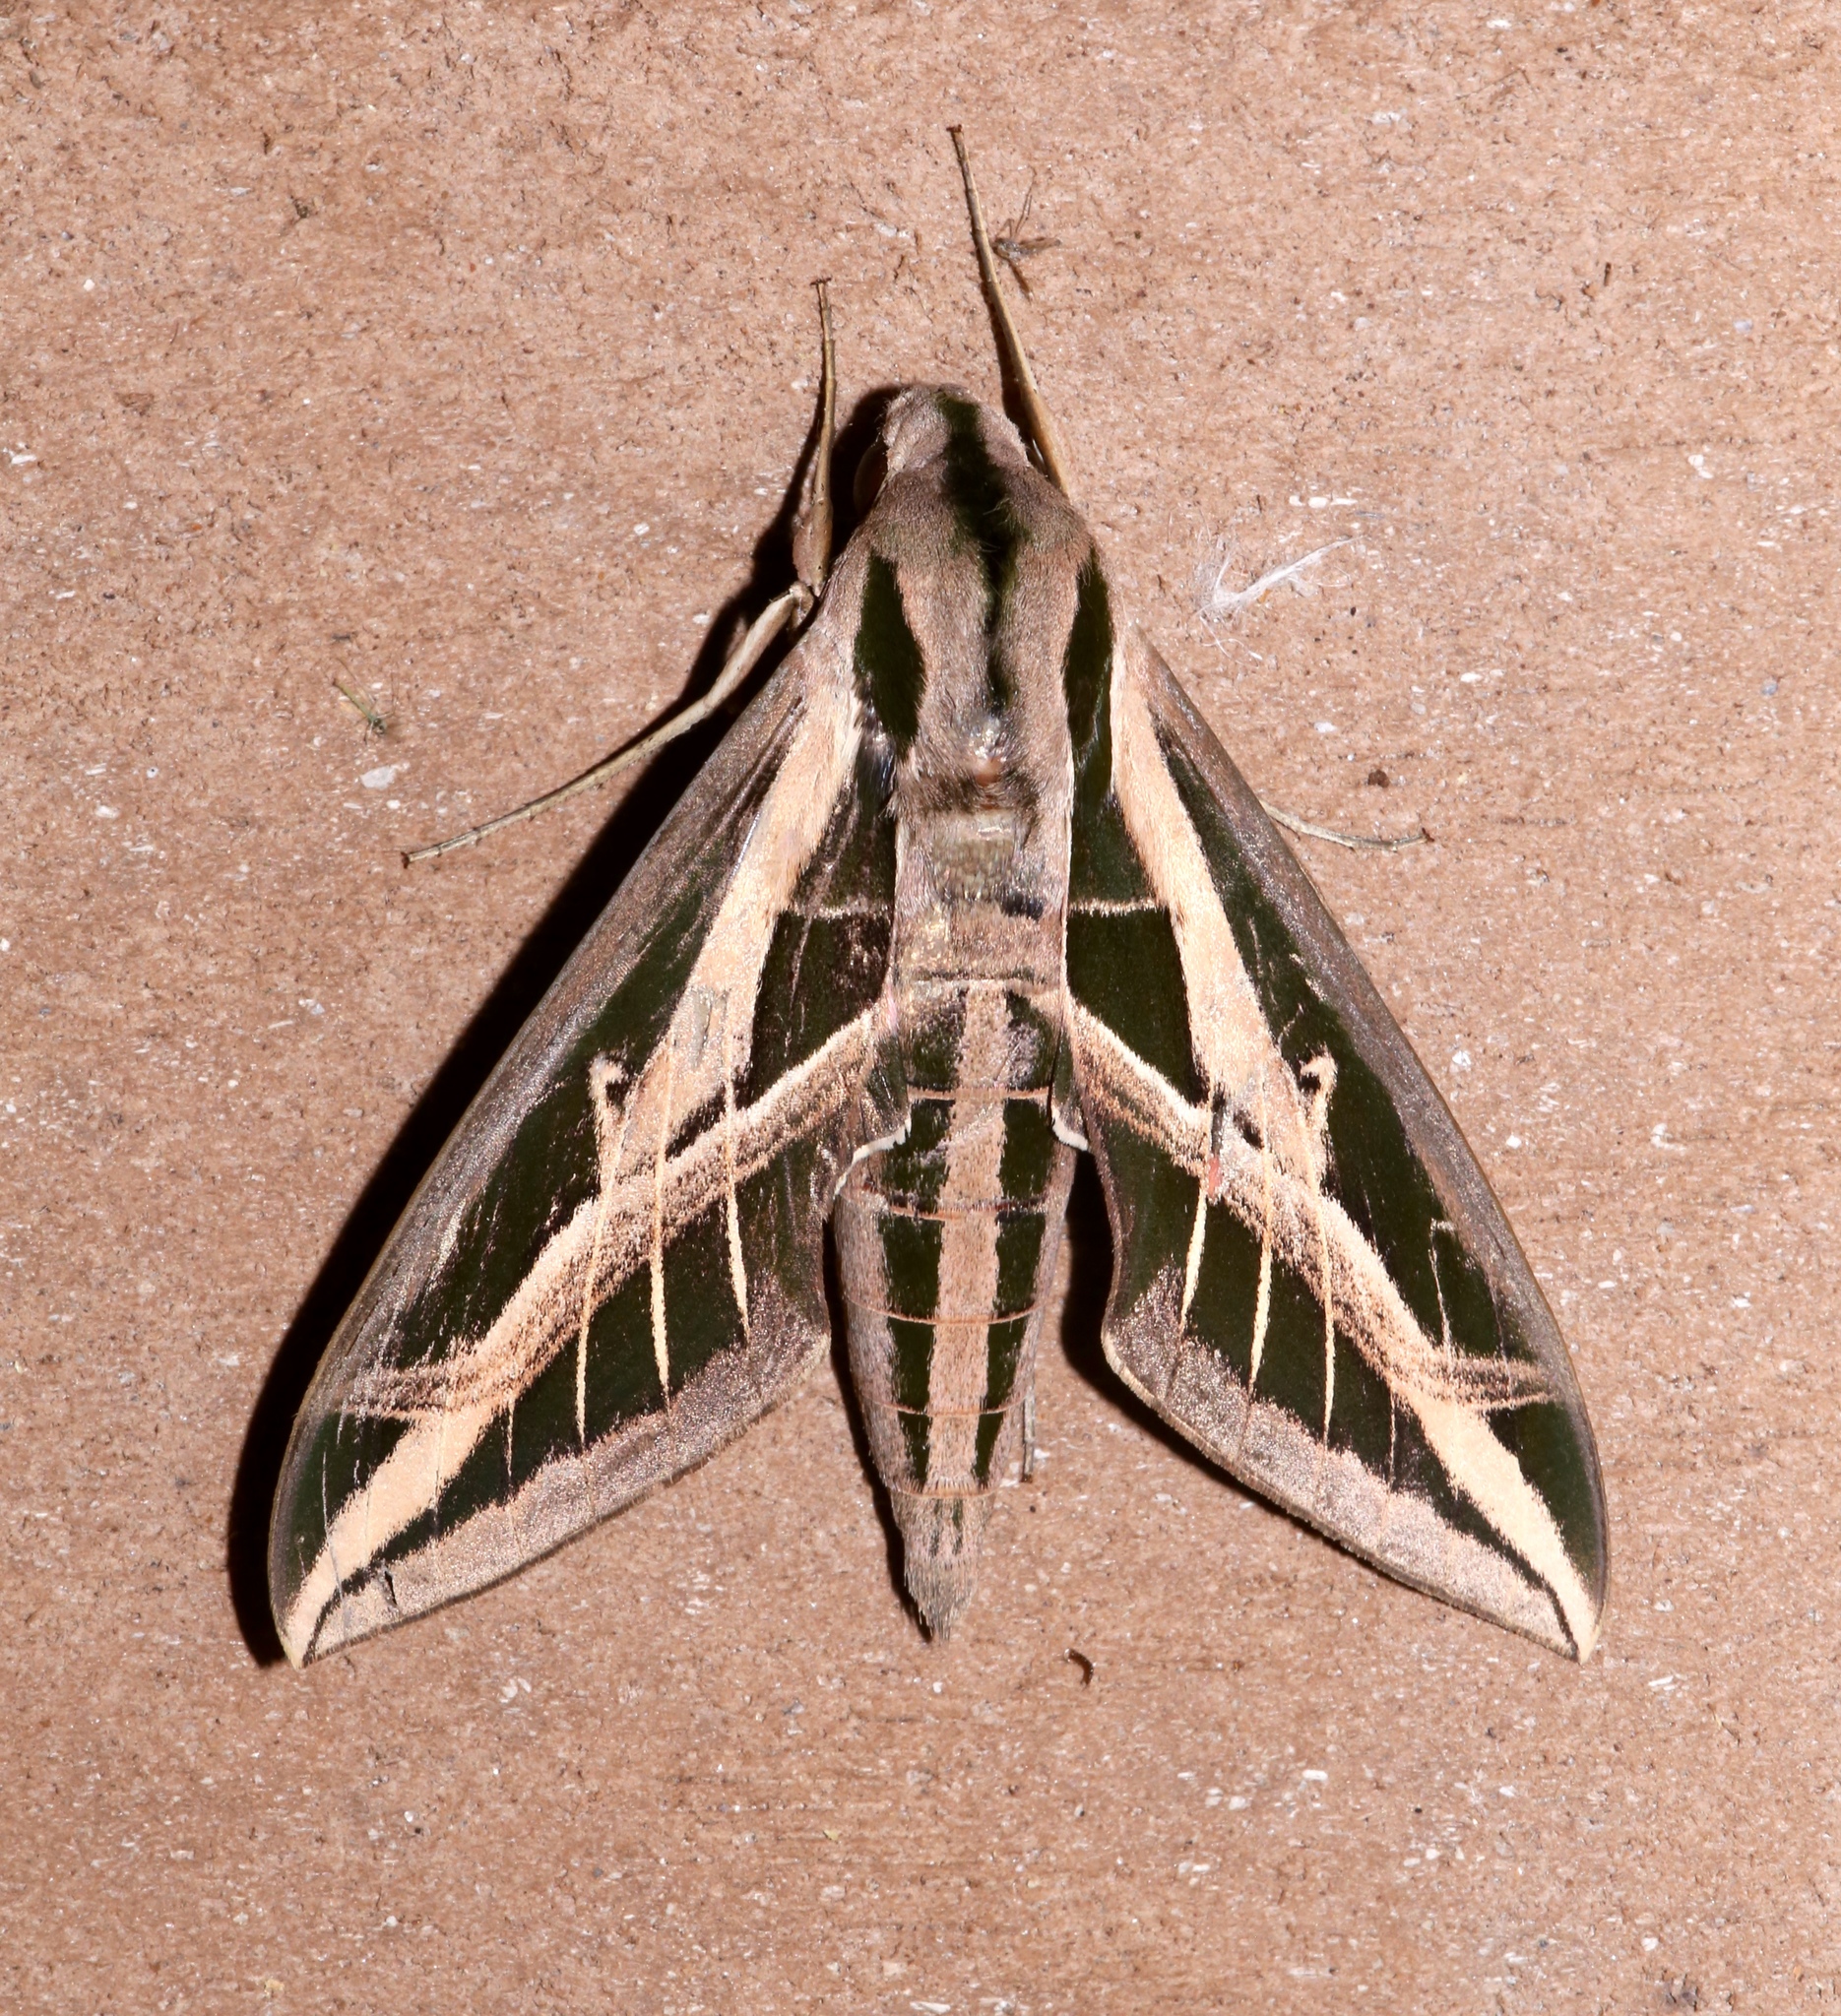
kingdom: Animalia
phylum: Arthropoda
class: Insecta
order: Lepidoptera
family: Sphingidae
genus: Eumorpha
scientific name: Eumorpha fasciatus
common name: Banded sphinx
